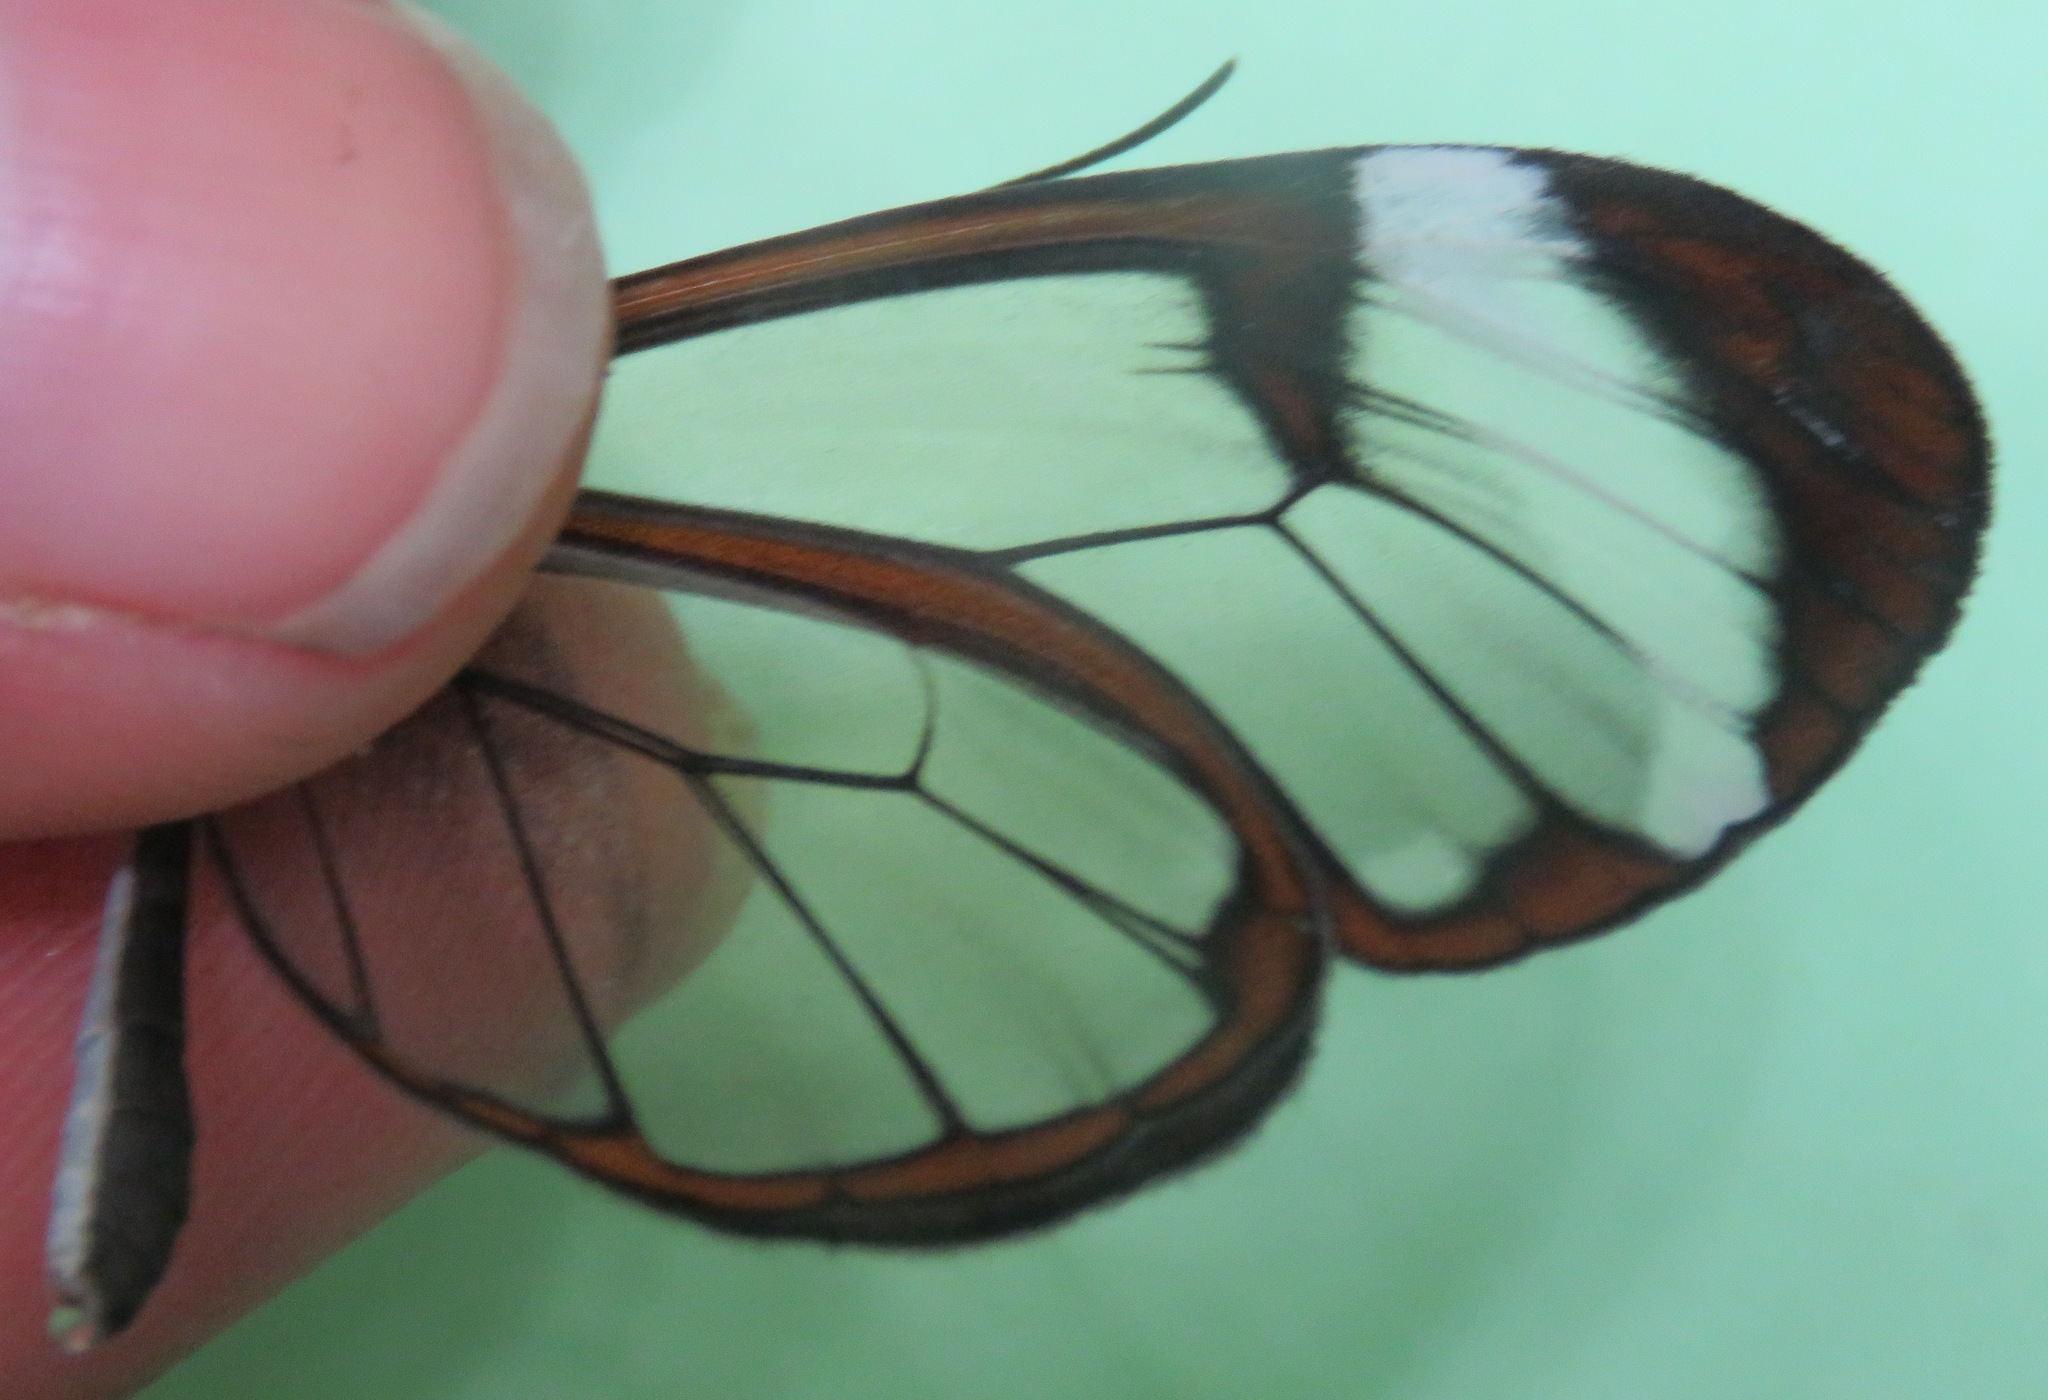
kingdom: Animalia
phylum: Arthropoda
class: Insecta
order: Lepidoptera
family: Nymphalidae
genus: Greta
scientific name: Greta morgane
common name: Thick-tipped greta
